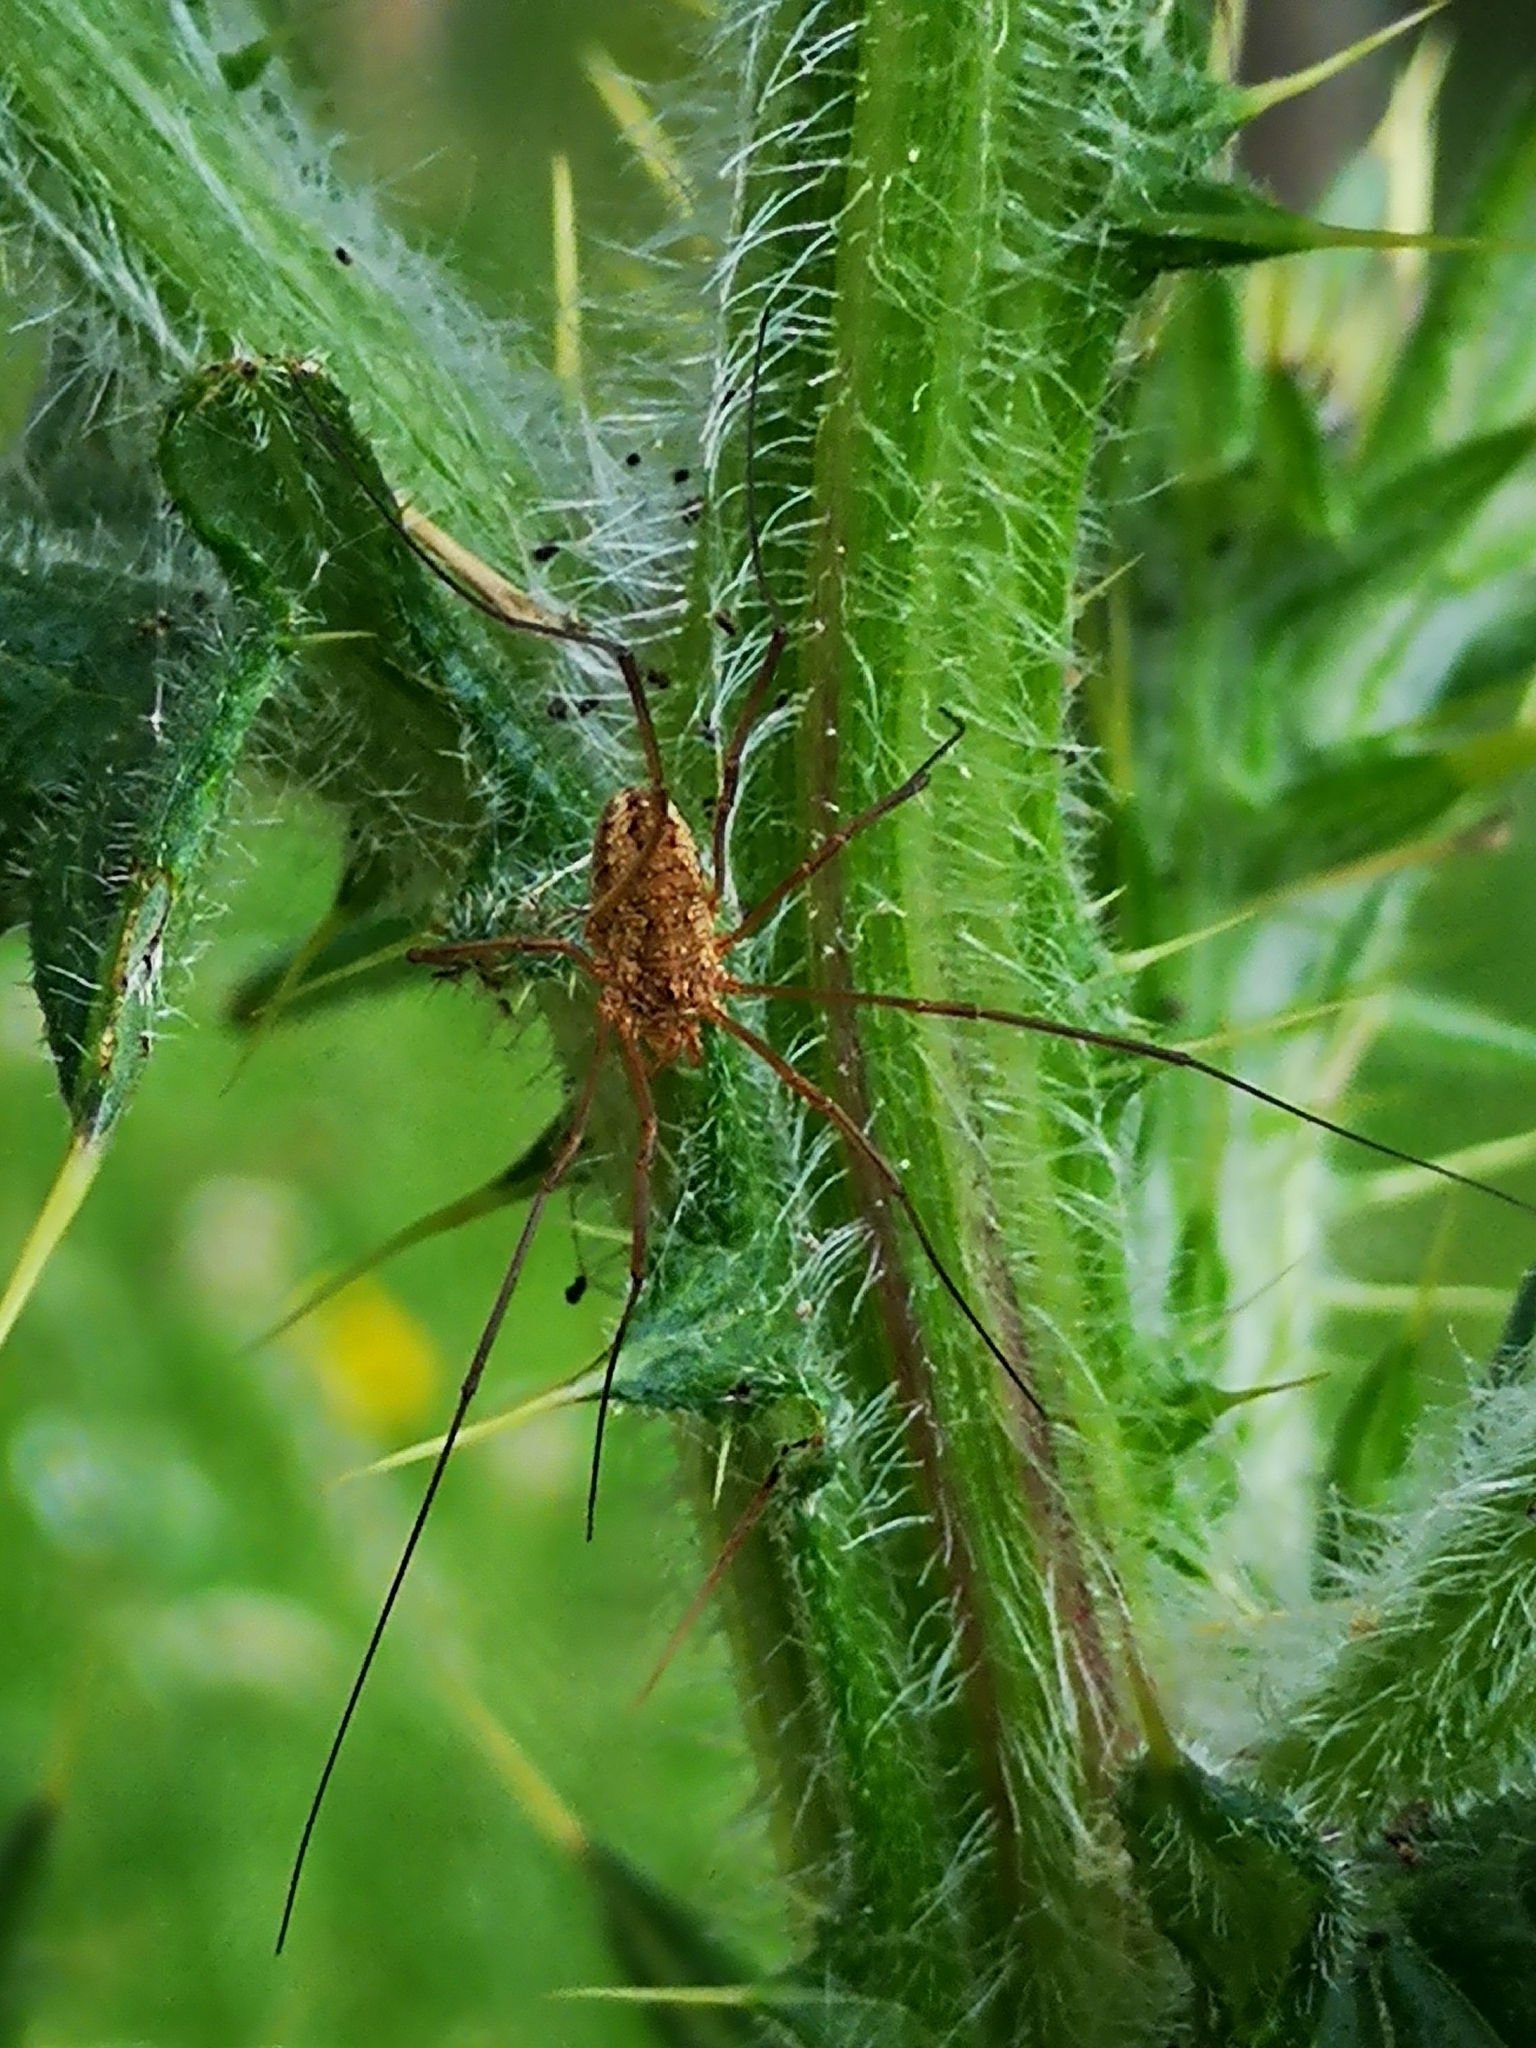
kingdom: Animalia
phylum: Arthropoda
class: Arachnida
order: Opiliones
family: Phalangiidae
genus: Phalangium
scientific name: Phalangium opilio
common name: Daddy longleg
